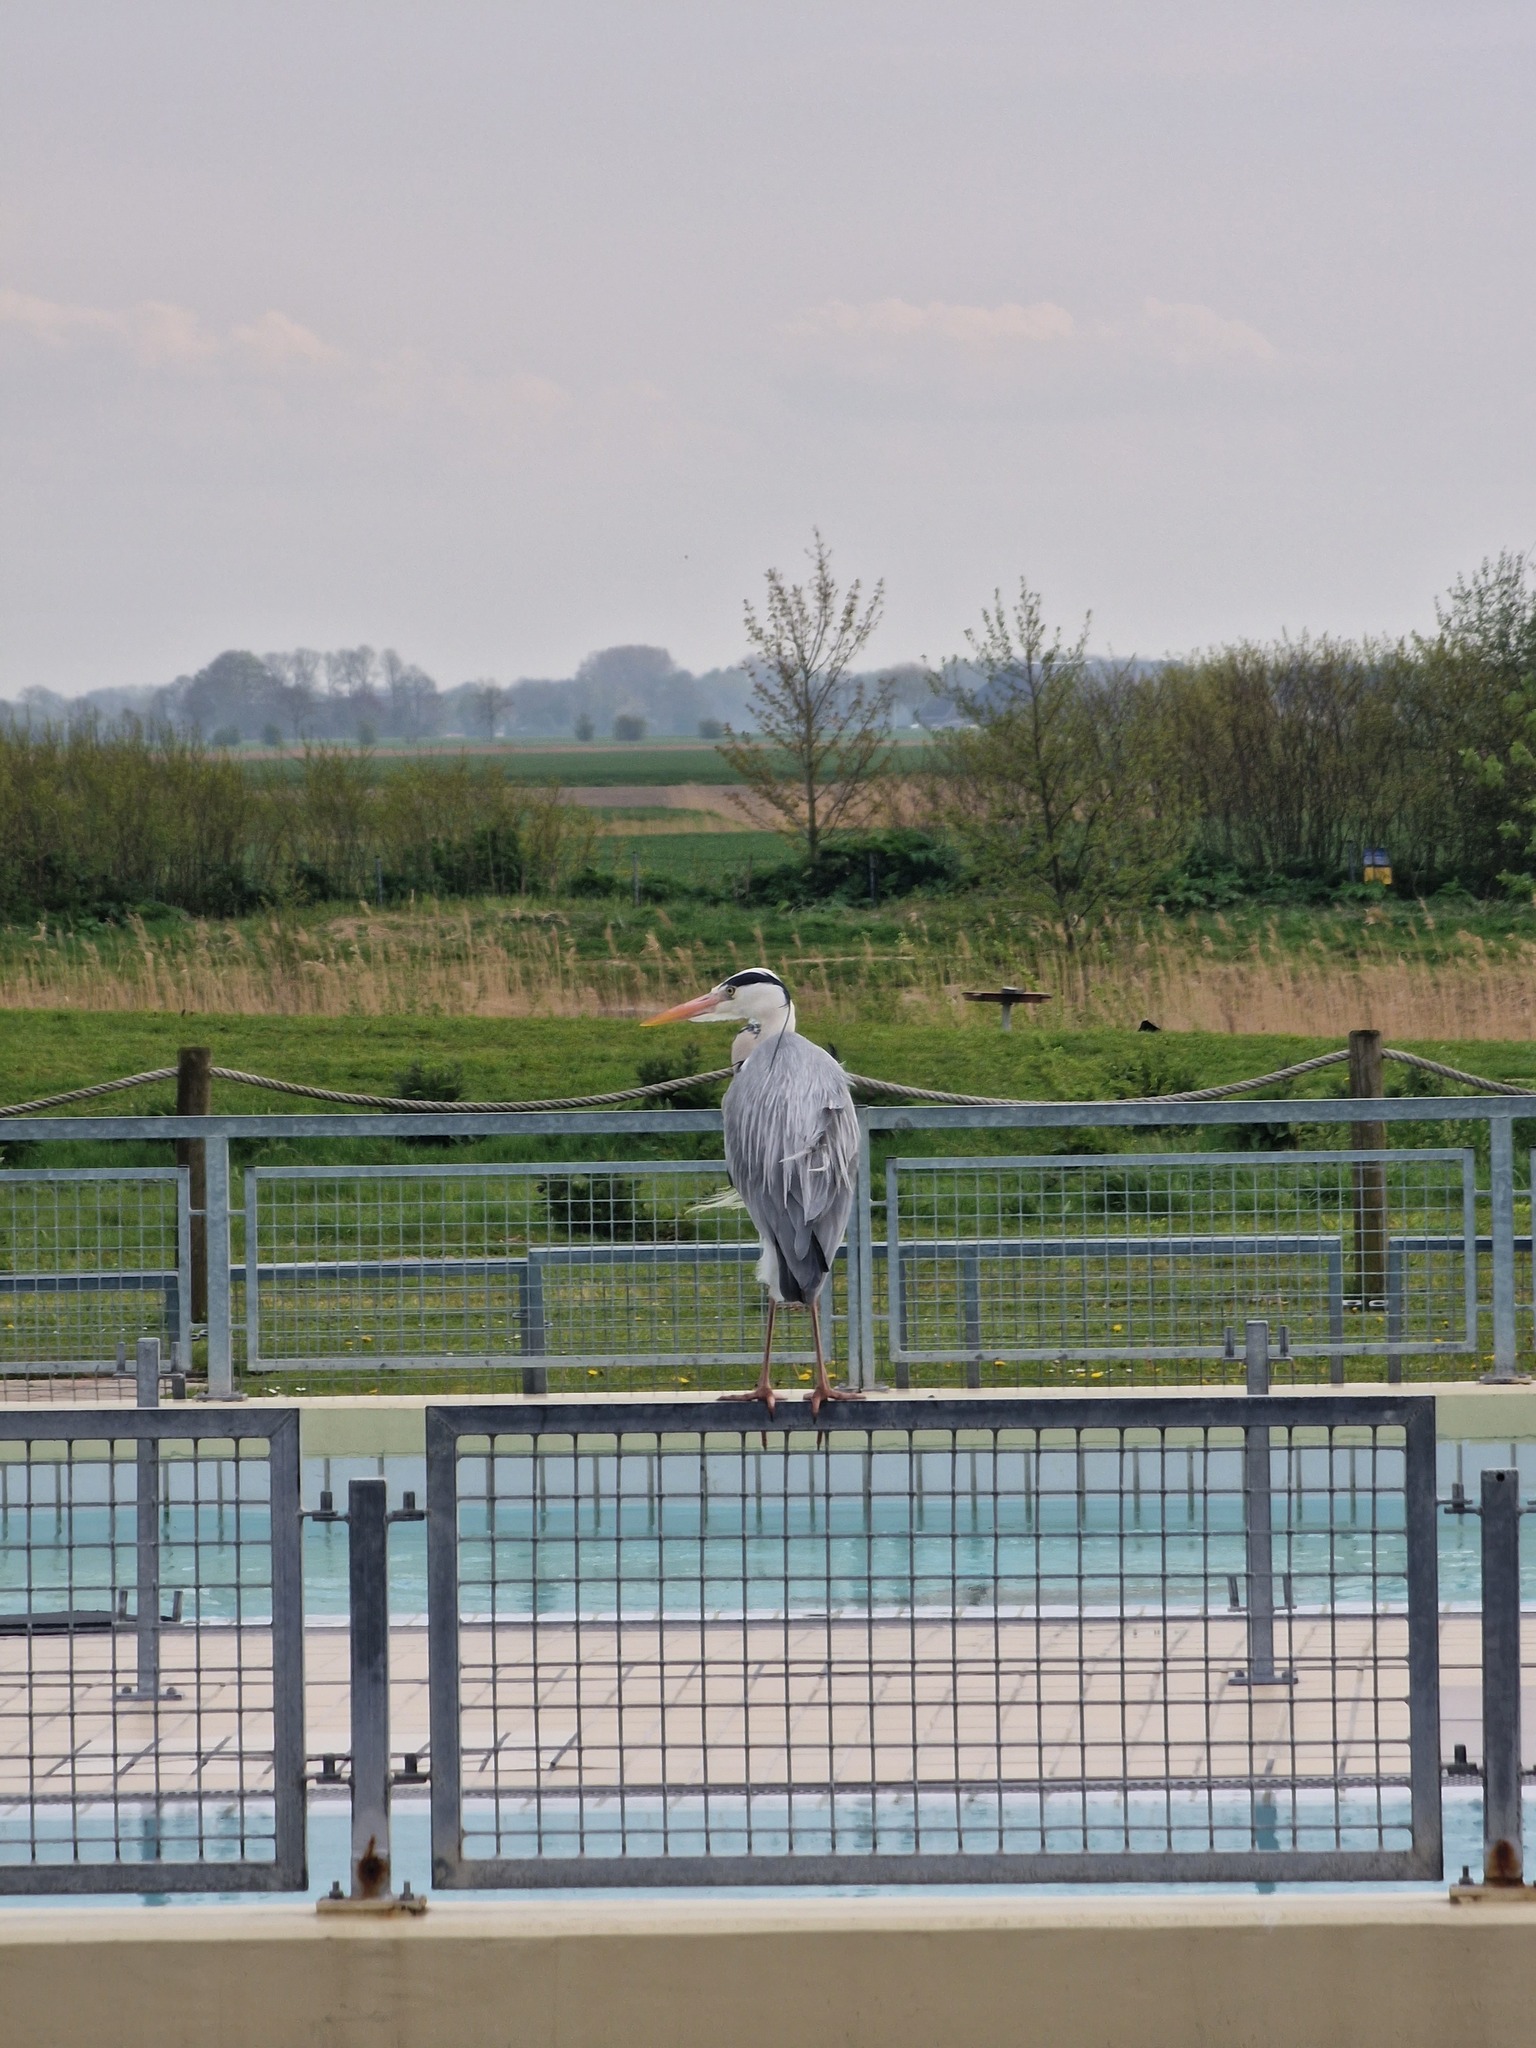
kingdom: Animalia
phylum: Chordata
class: Aves
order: Pelecaniformes
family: Ardeidae
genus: Ardea
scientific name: Ardea cinerea
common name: Grey heron
